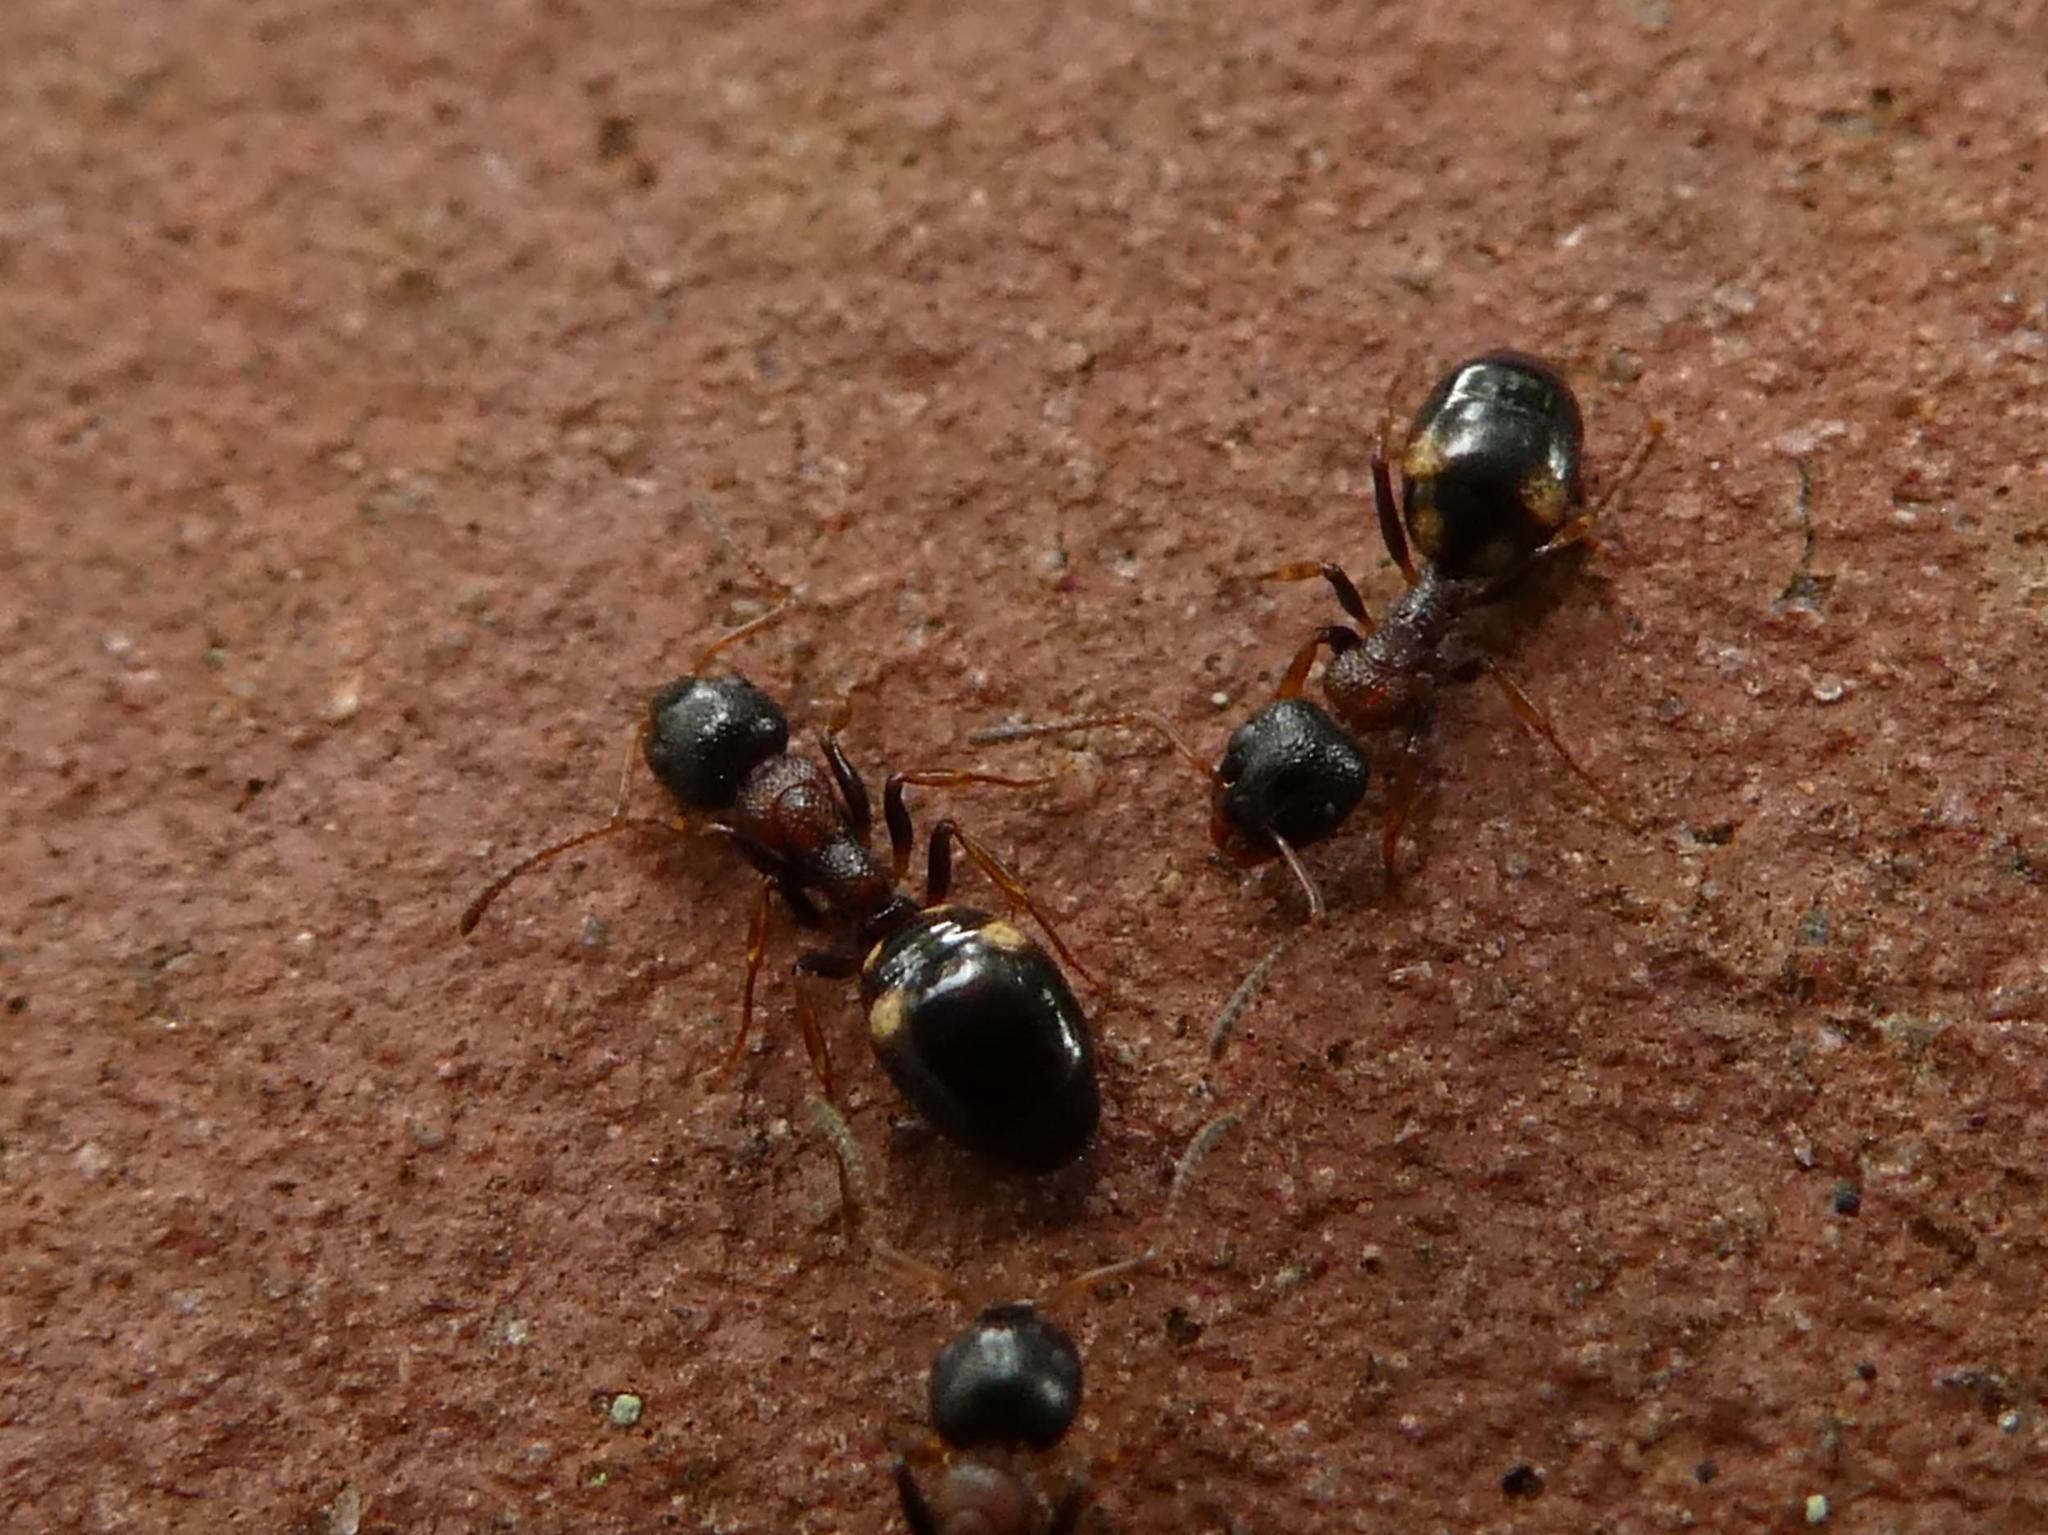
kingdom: Animalia
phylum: Arthropoda
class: Insecta
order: Hymenoptera
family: Formicidae
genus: Dolichoderus
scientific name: Dolichoderus quadripunctatus
